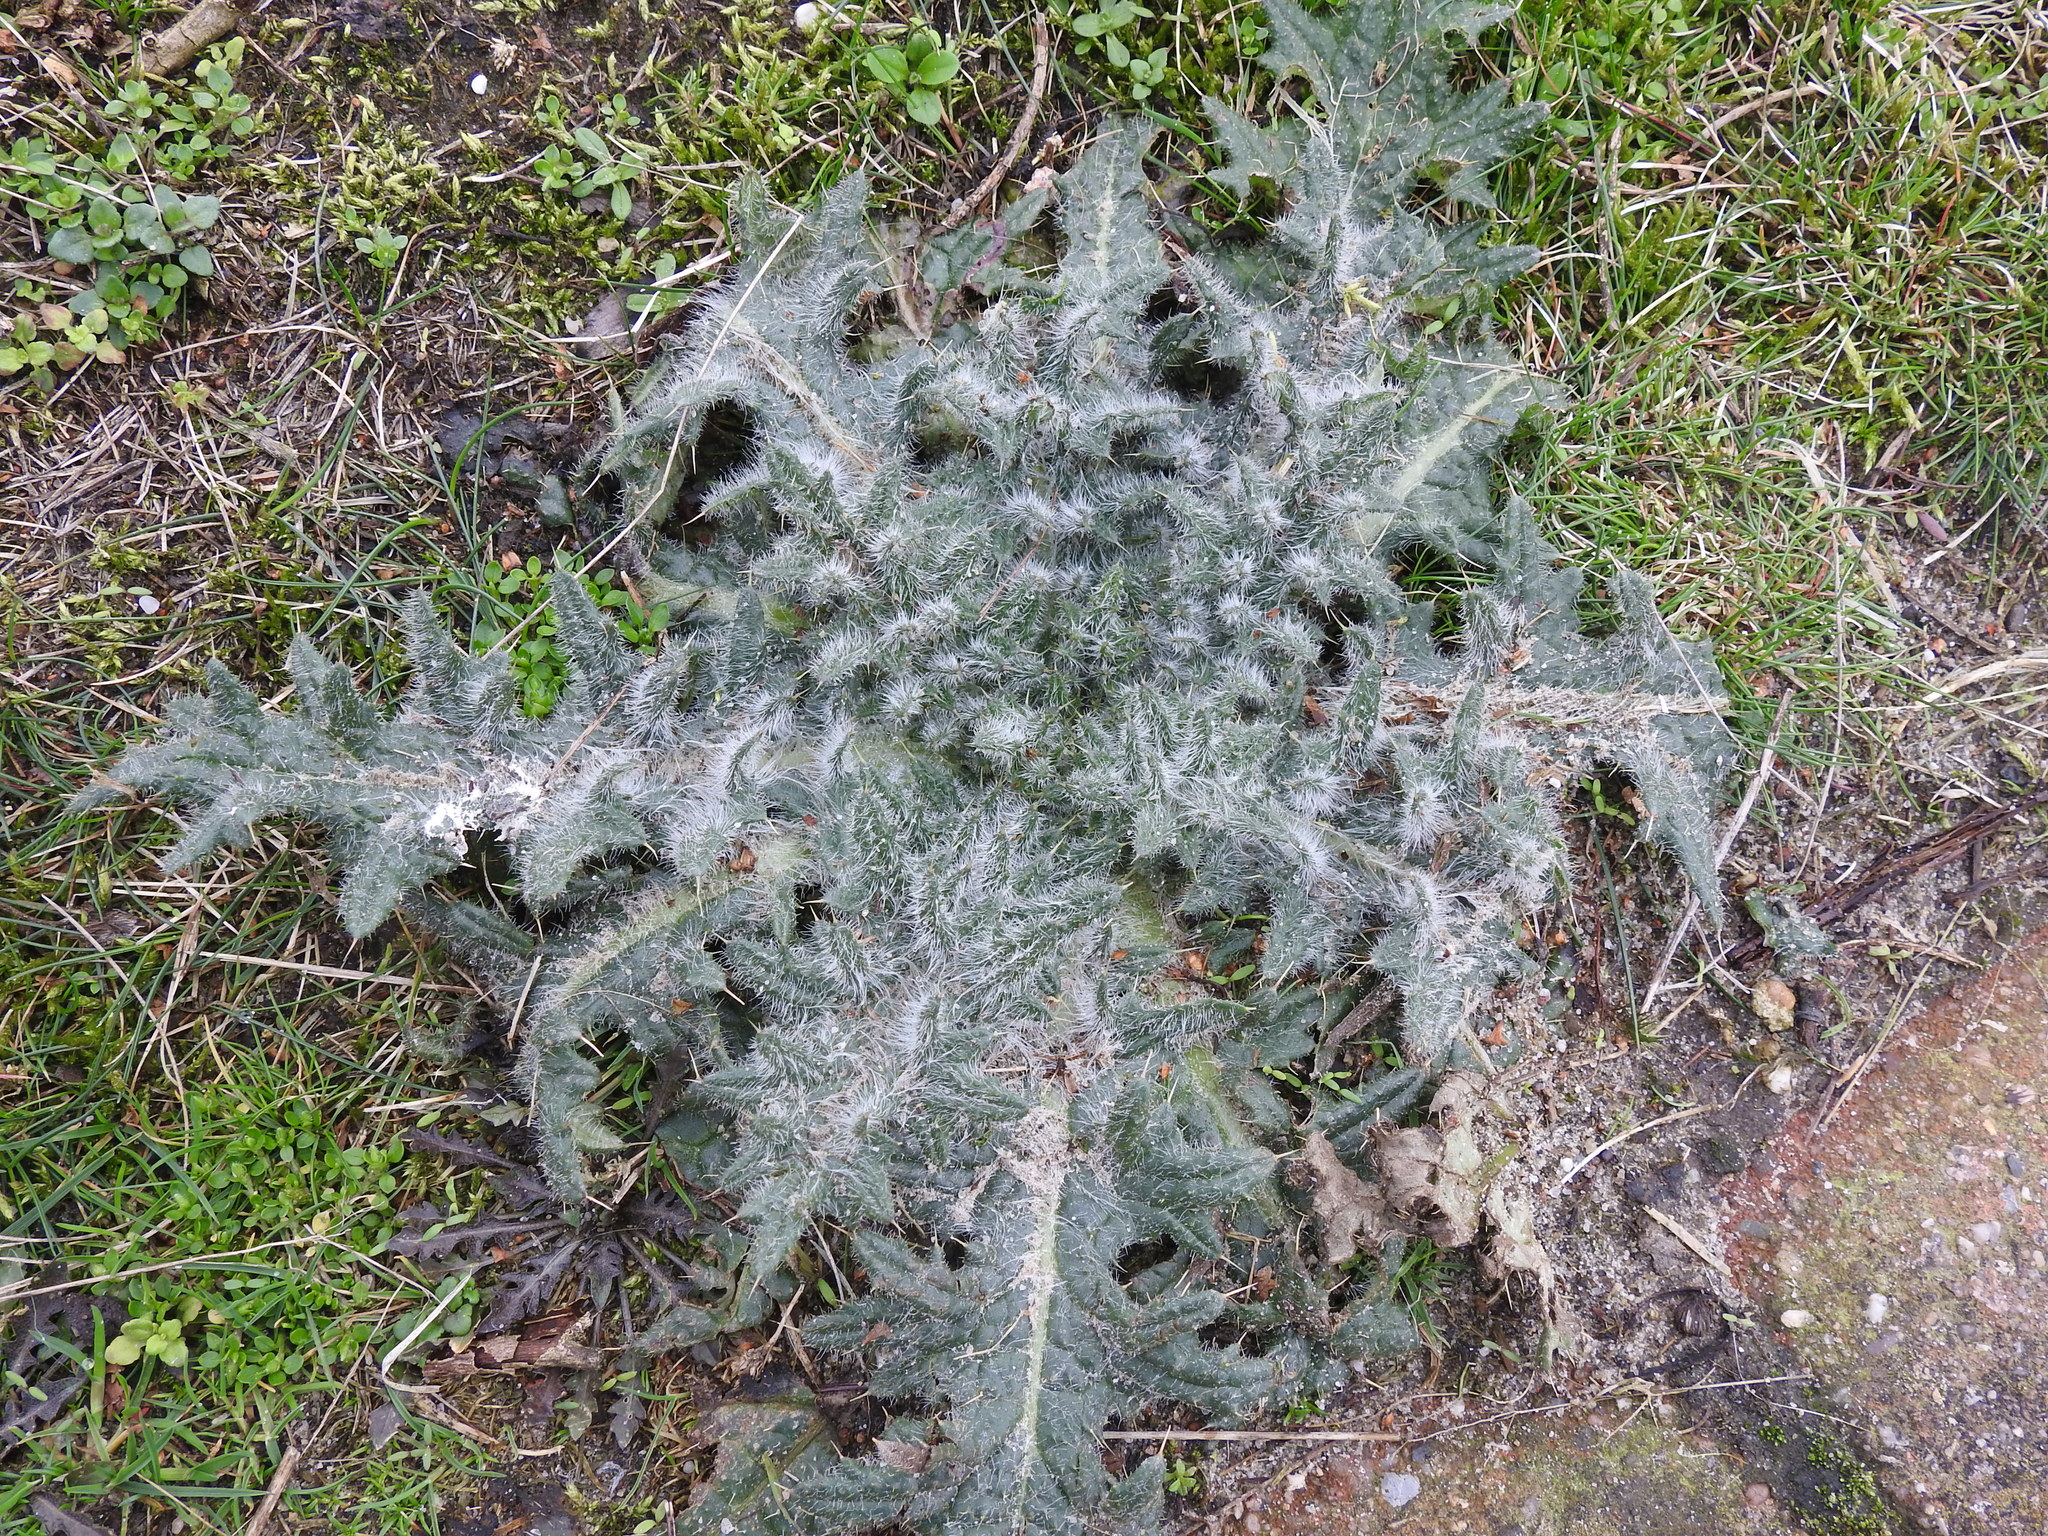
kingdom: Plantae
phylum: Tracheophyta
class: Magnoliopsida
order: Asterales
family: Asteraceae
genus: Cirsium
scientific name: Cirsium vulgare
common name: Bull thistle
